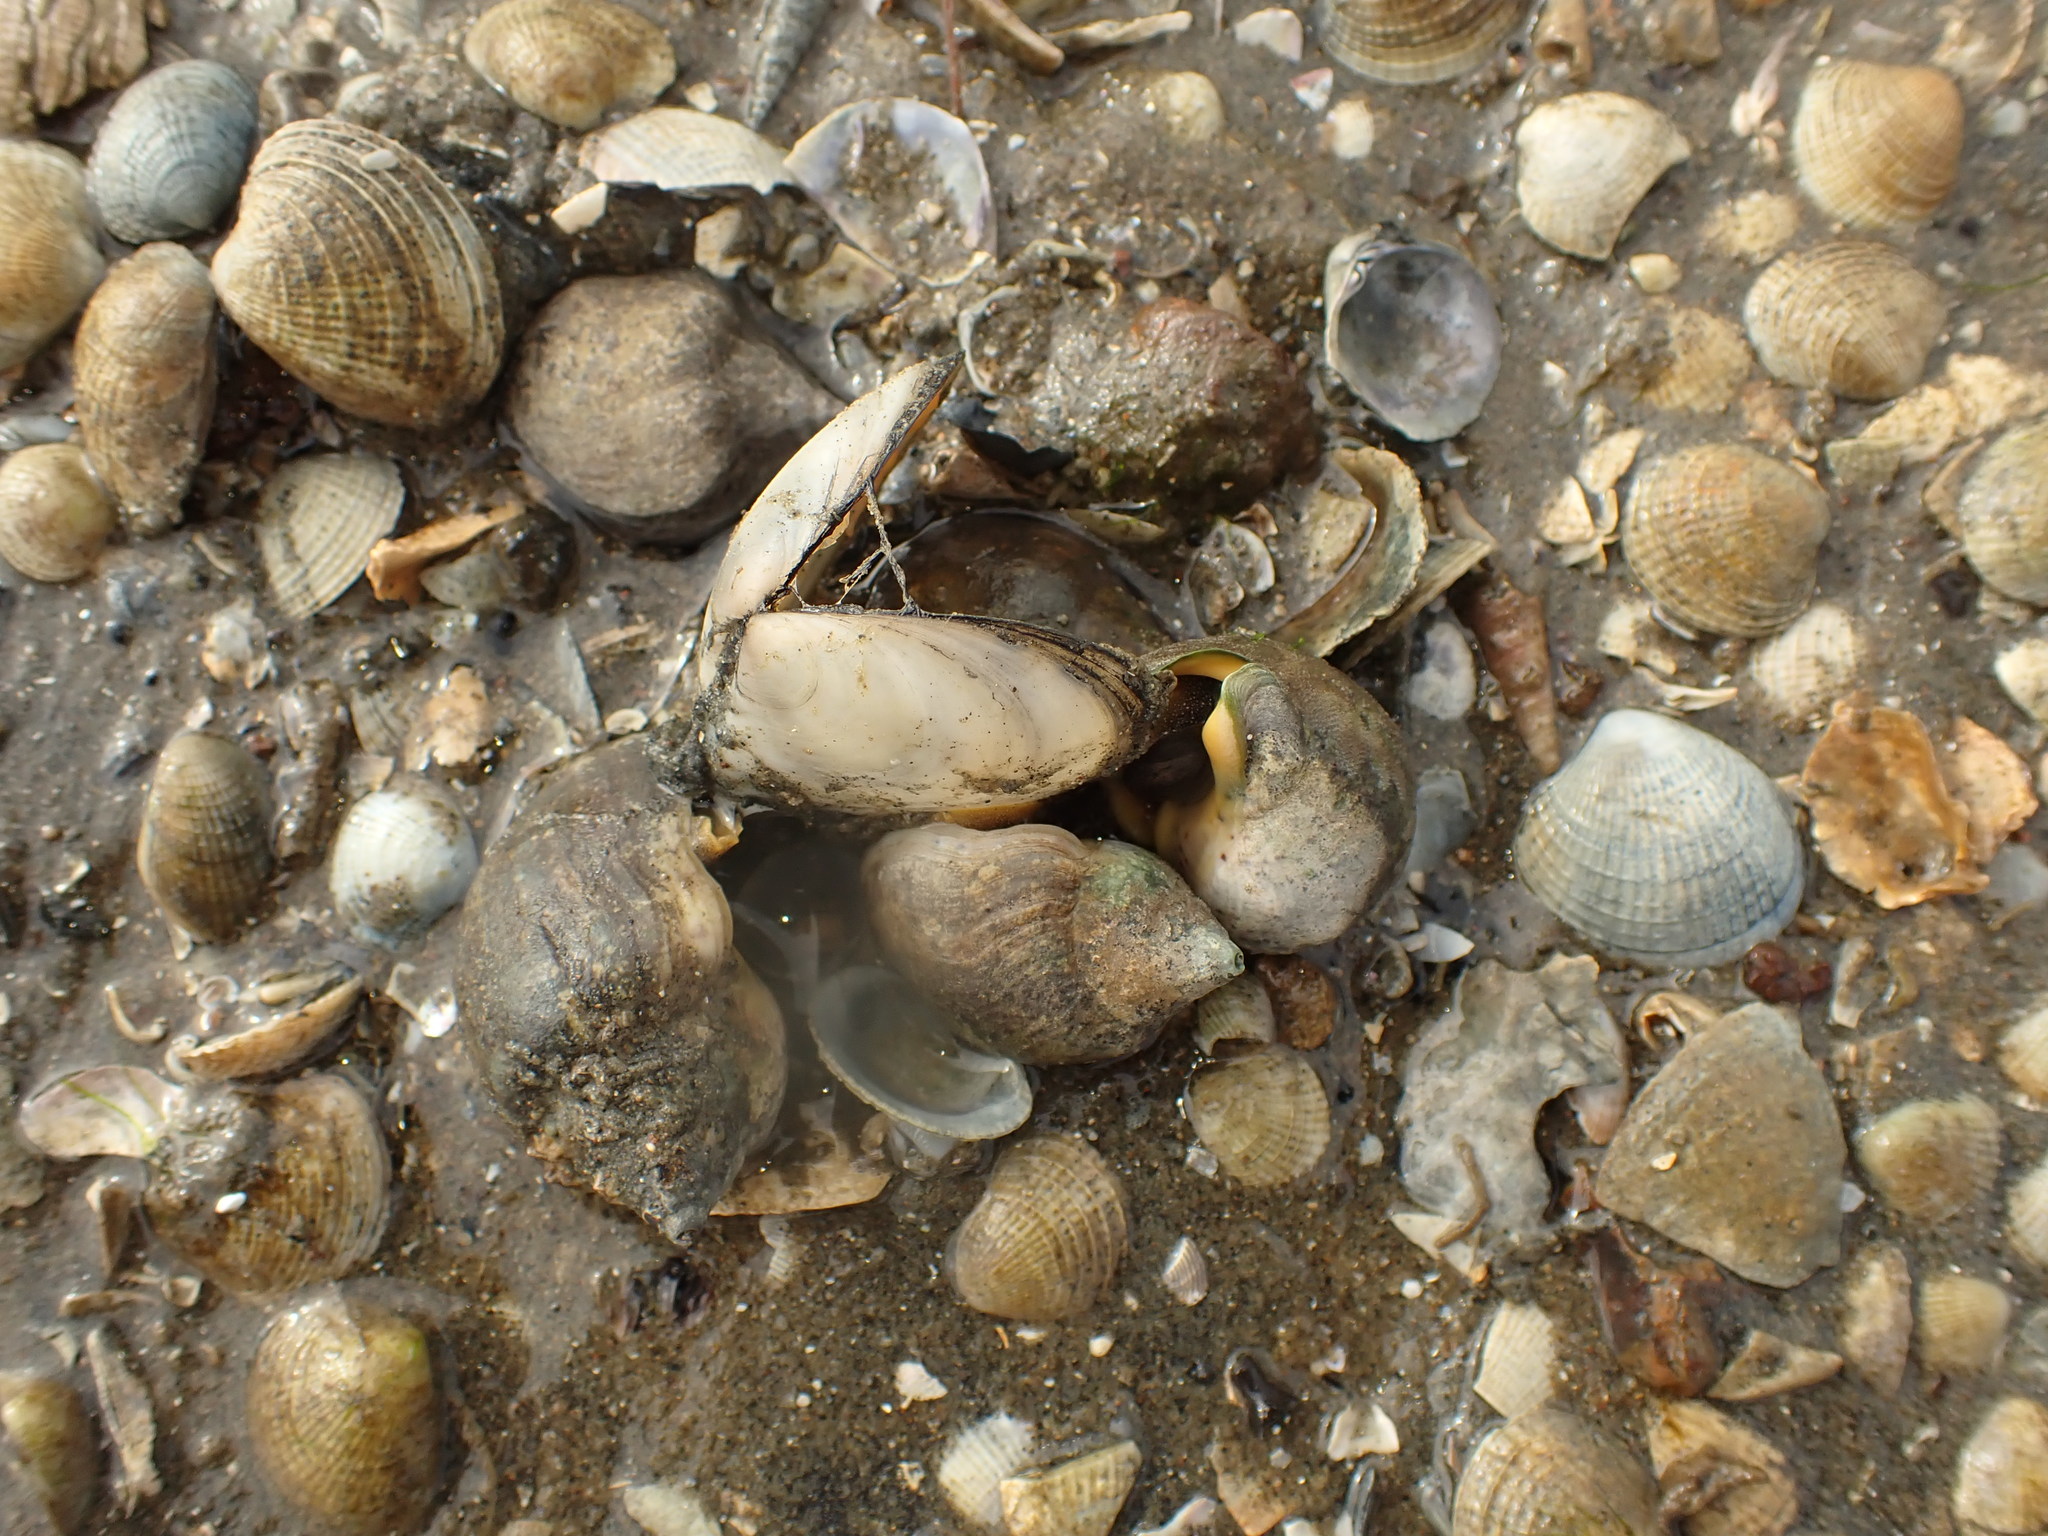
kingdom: Animalia
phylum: Mollusca
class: Bivalvia
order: Cardiida
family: Tellinidae
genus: Macomona
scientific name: Macomona liliana
